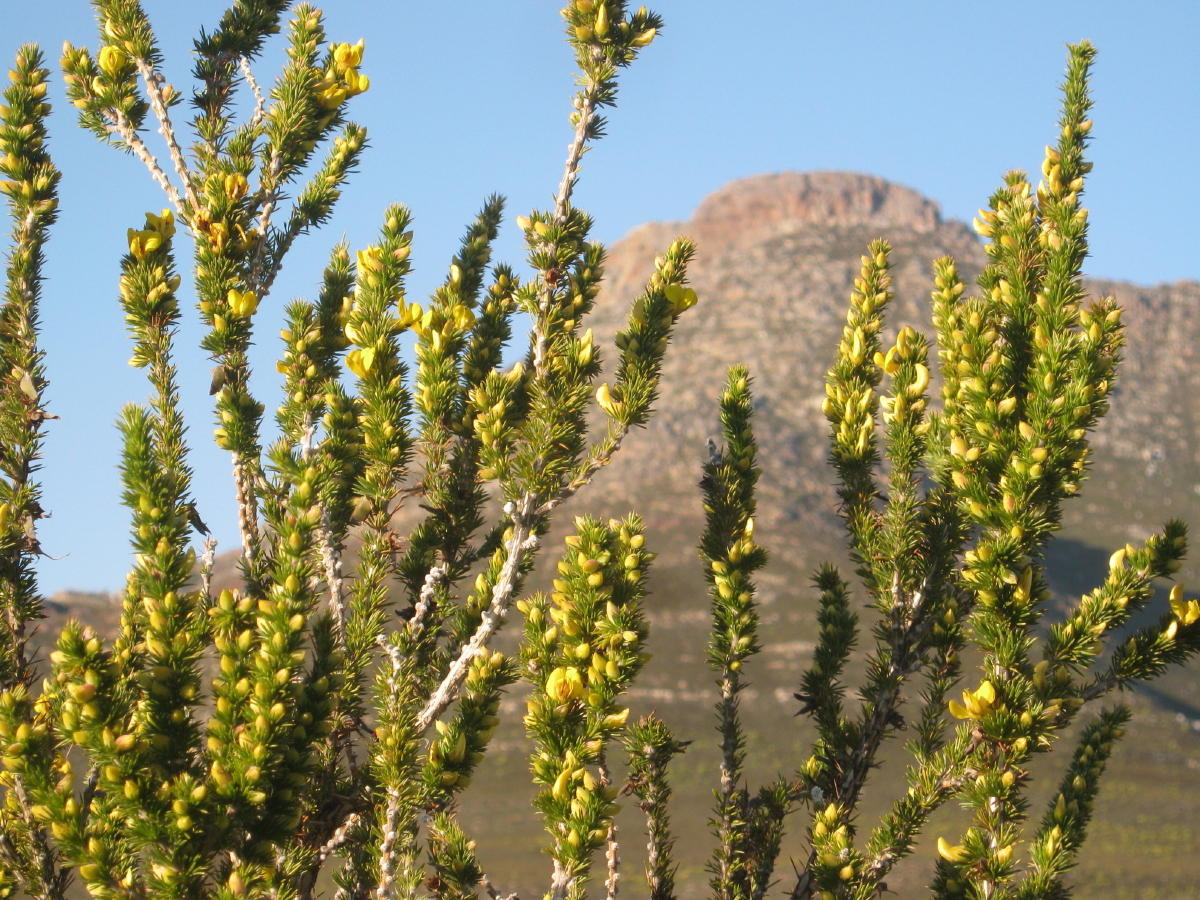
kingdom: Plantae
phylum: Tracheophyta
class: Magnoliopsida
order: Fabales
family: Fabaceae
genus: Aspalathus
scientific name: Aspalathus sceptrumaureum
